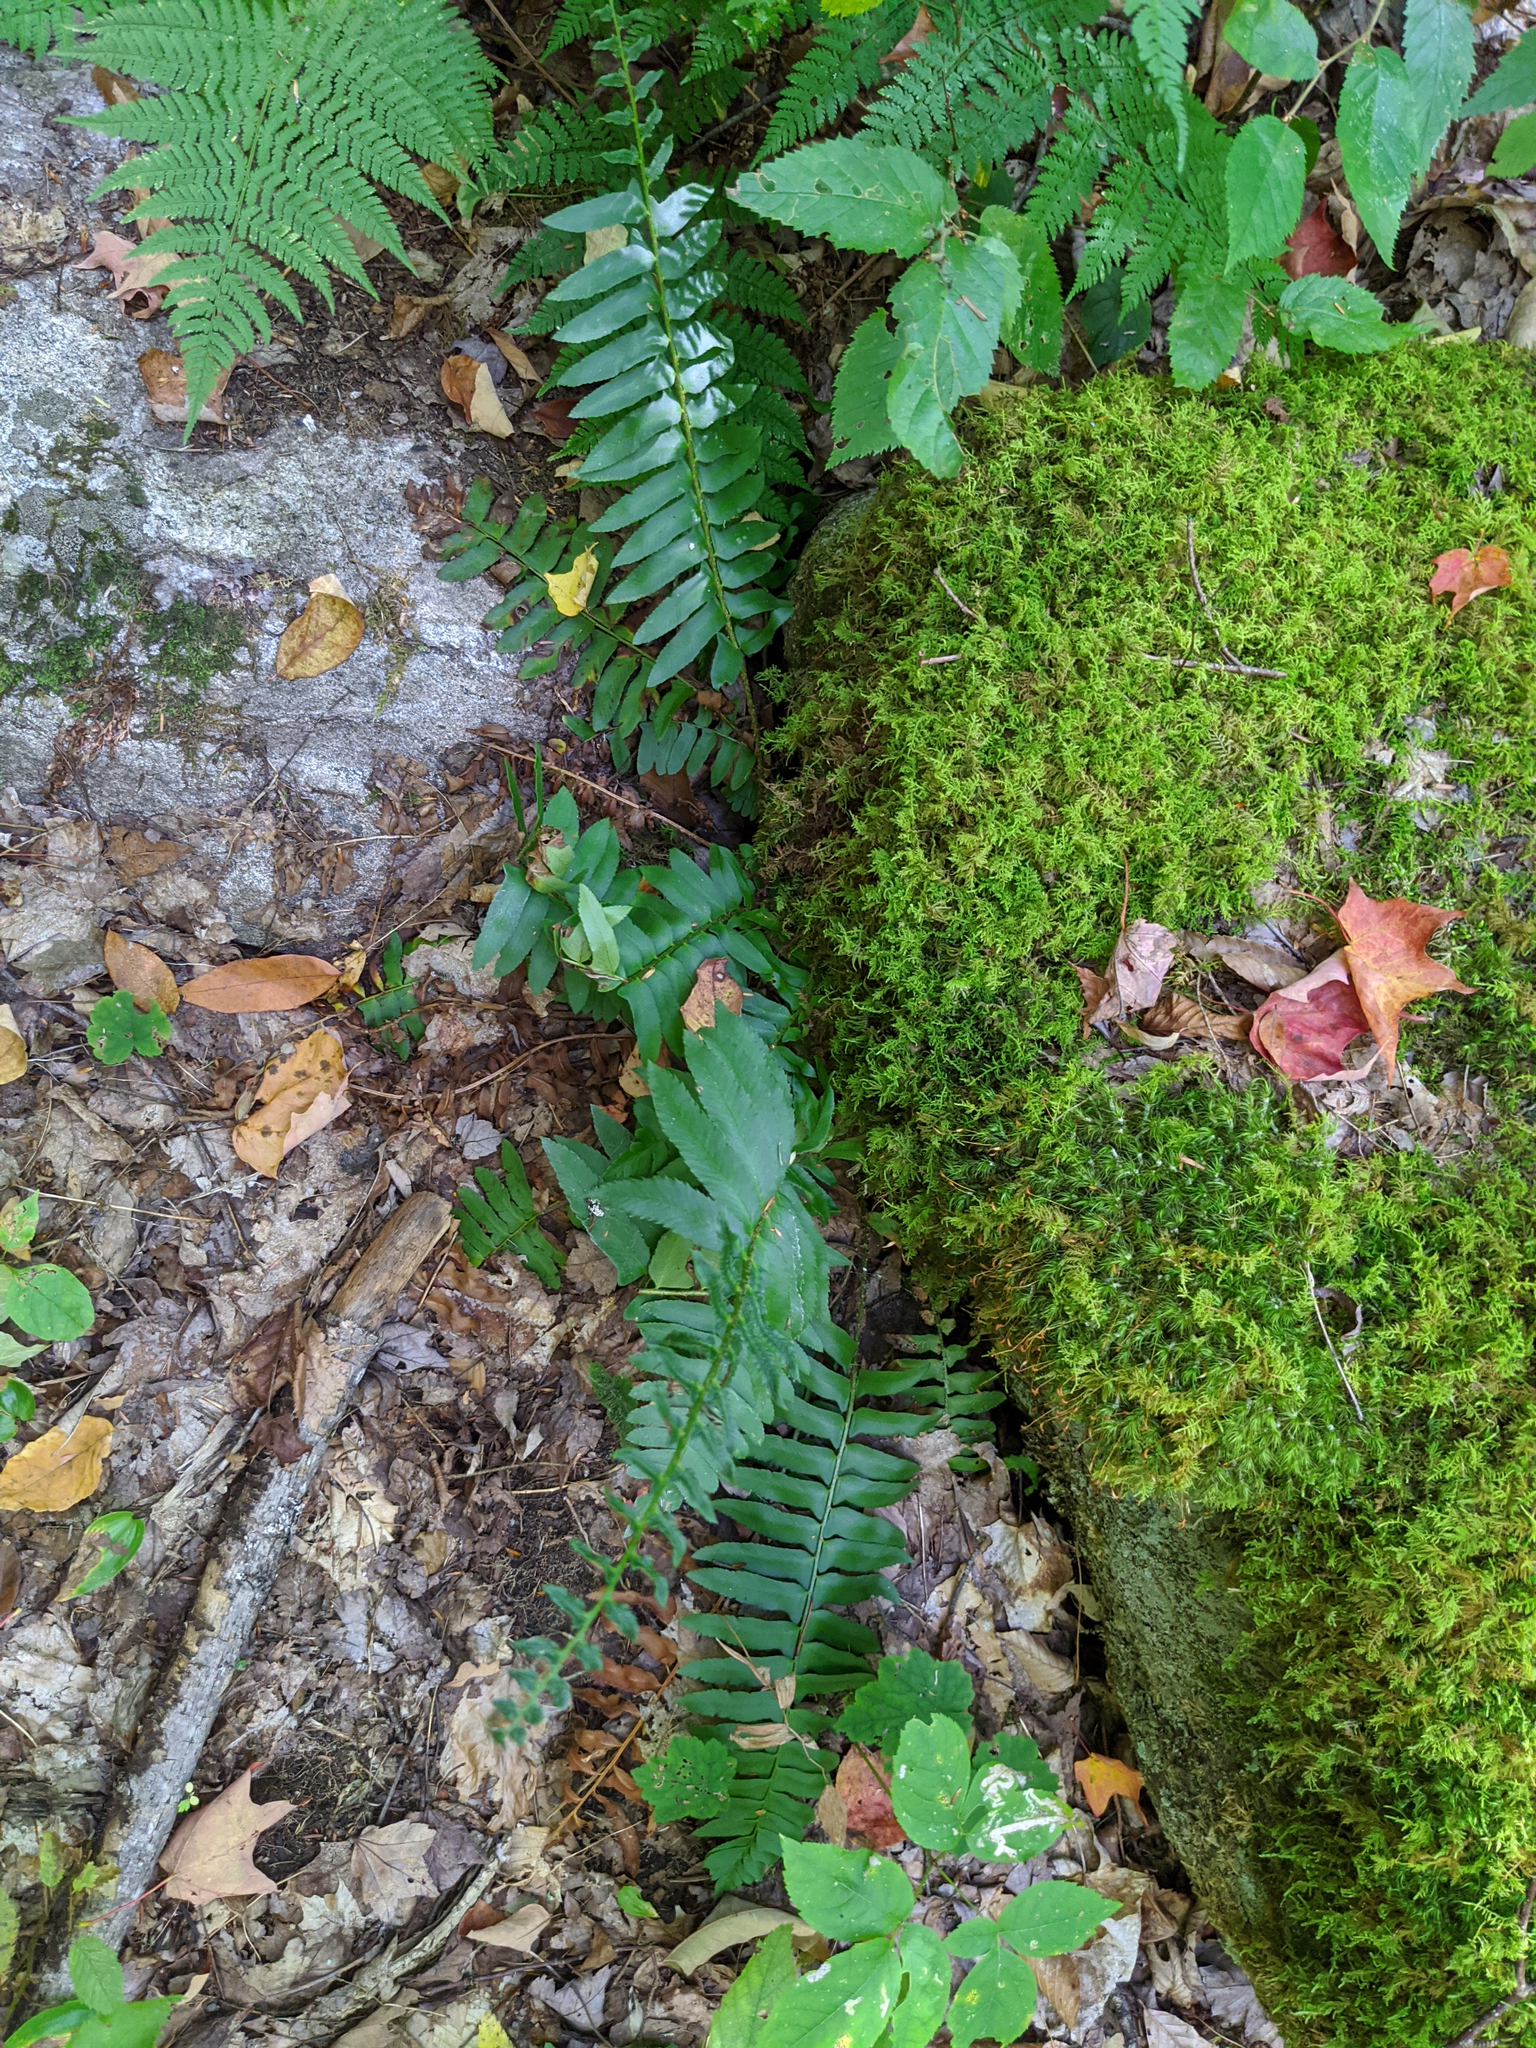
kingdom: Plantae
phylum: Tracheophyta
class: Polypodiopsida
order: Polypodiales
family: Dryopteridaceae
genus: Polystichum
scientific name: Polystichum acrostichoides
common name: Christmas fern
